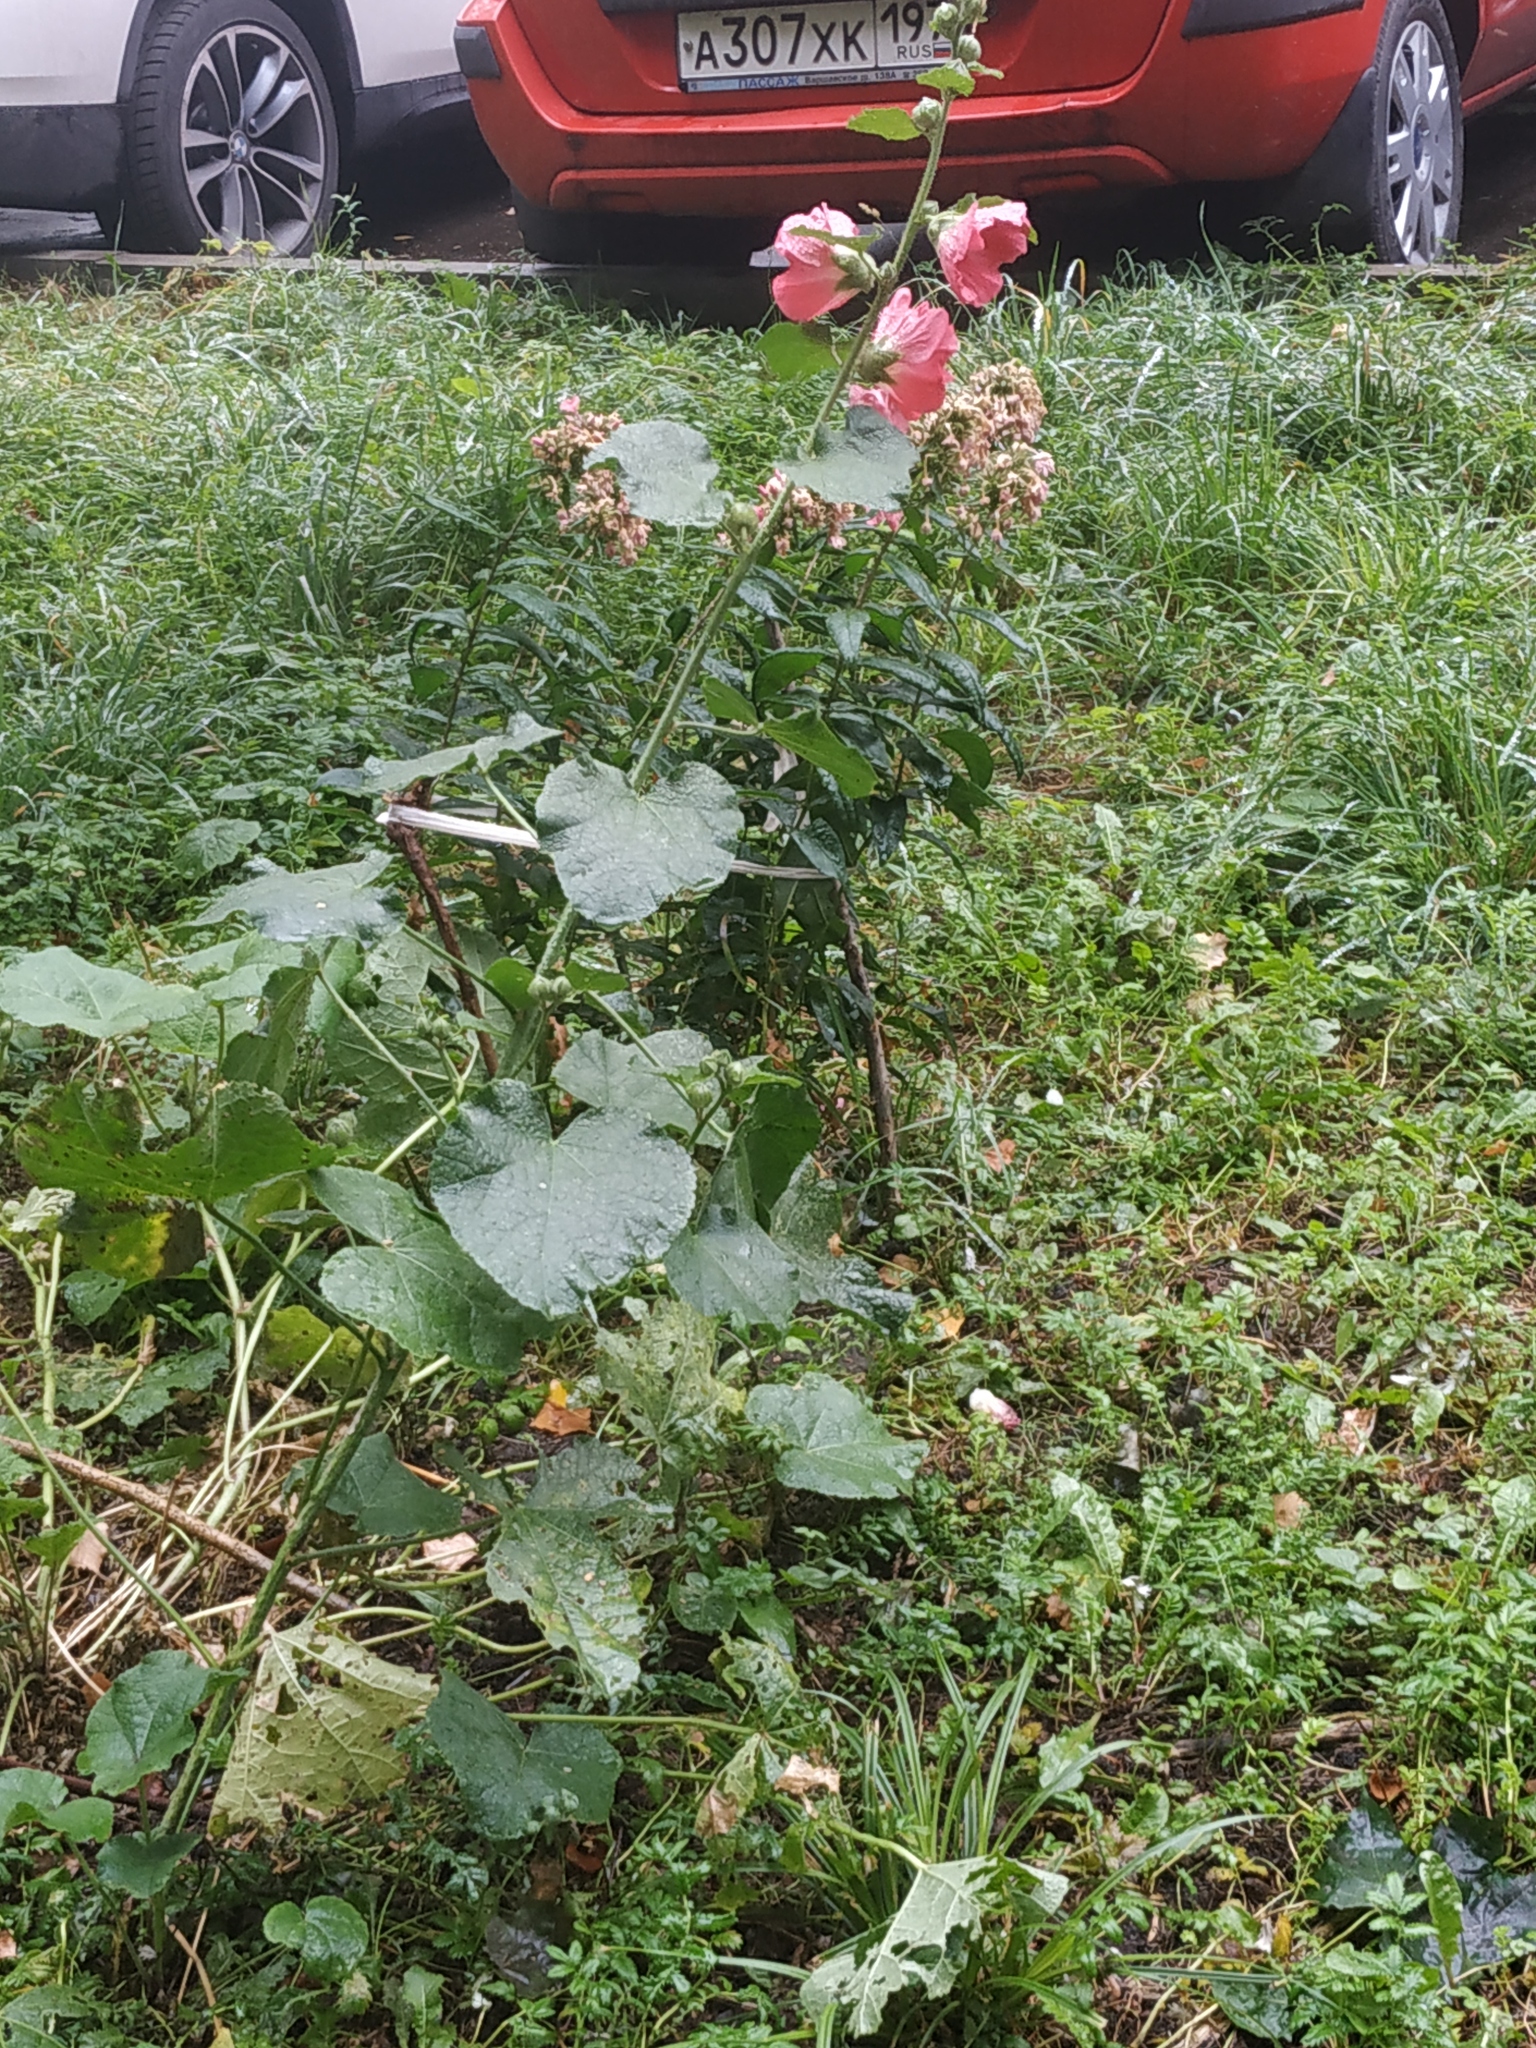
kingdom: Plantae
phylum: Tracheophyta
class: Magnoliopsida
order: Malvales
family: Malvaceae
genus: Alcea
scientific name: Alcea rosea
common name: Hollyhock
